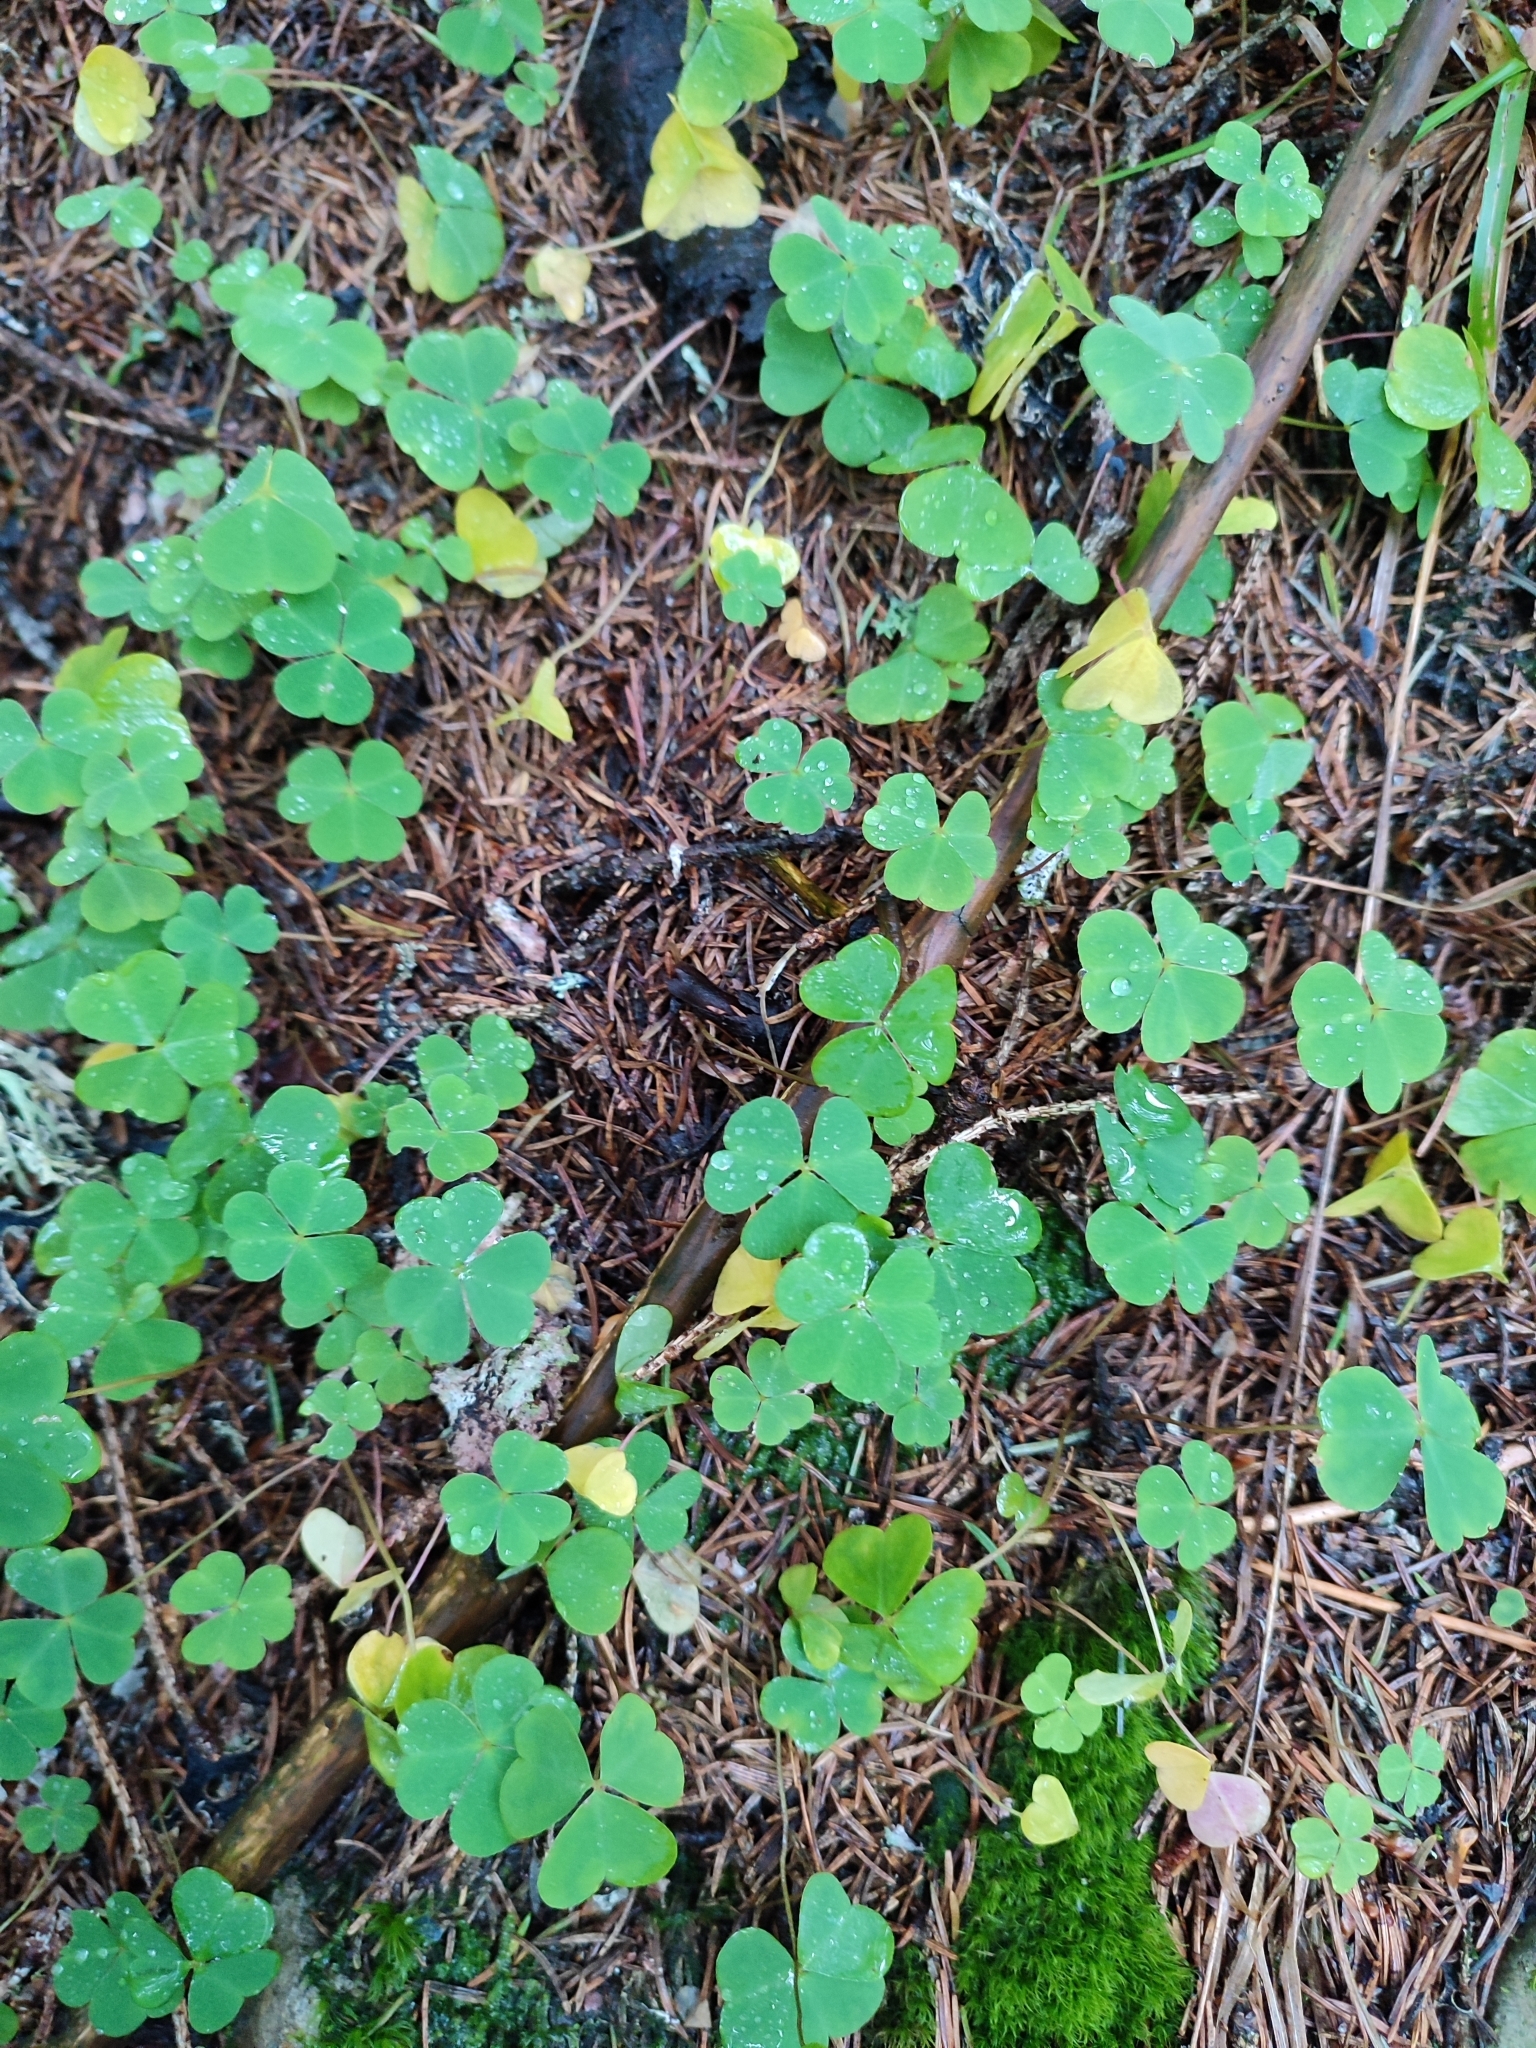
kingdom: Plantae
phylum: Tracheophyta
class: Magnoliopsida
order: Oxalidales
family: Oxalidaceae
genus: Oxalis
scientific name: Oxalis acetosella
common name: Wood-sorrel
